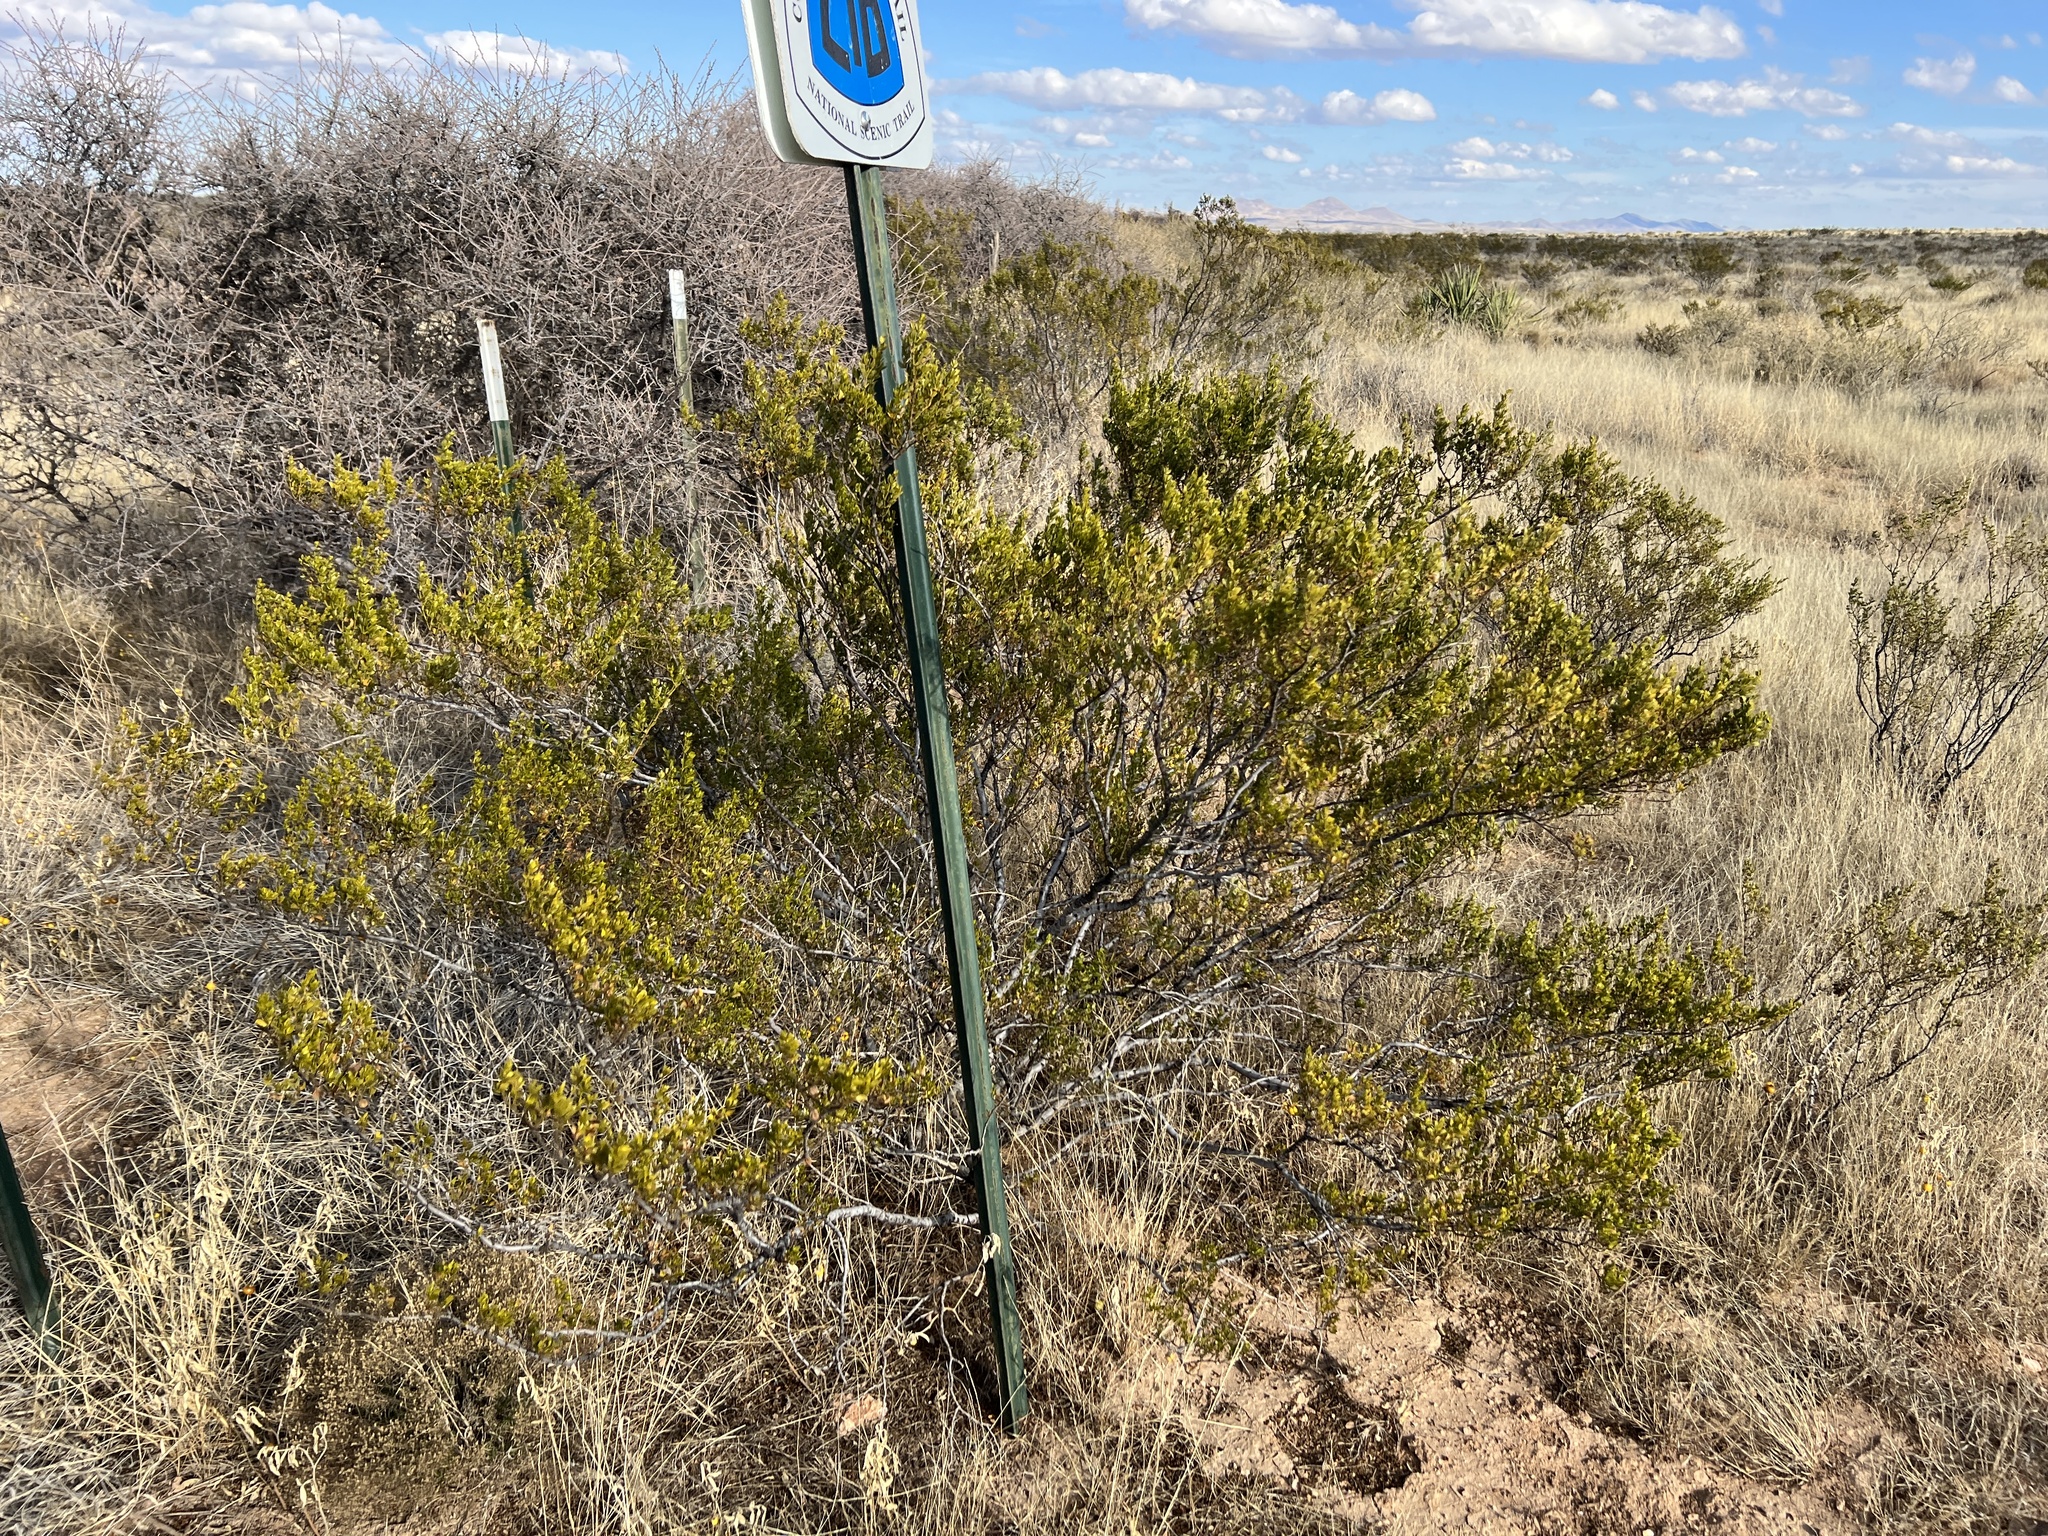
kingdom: Plantae
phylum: Tracheophyta
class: Magnoliopsida
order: Zygophyllales
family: Zygophyllaceae
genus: Larrea
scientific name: Larrea tridentata
